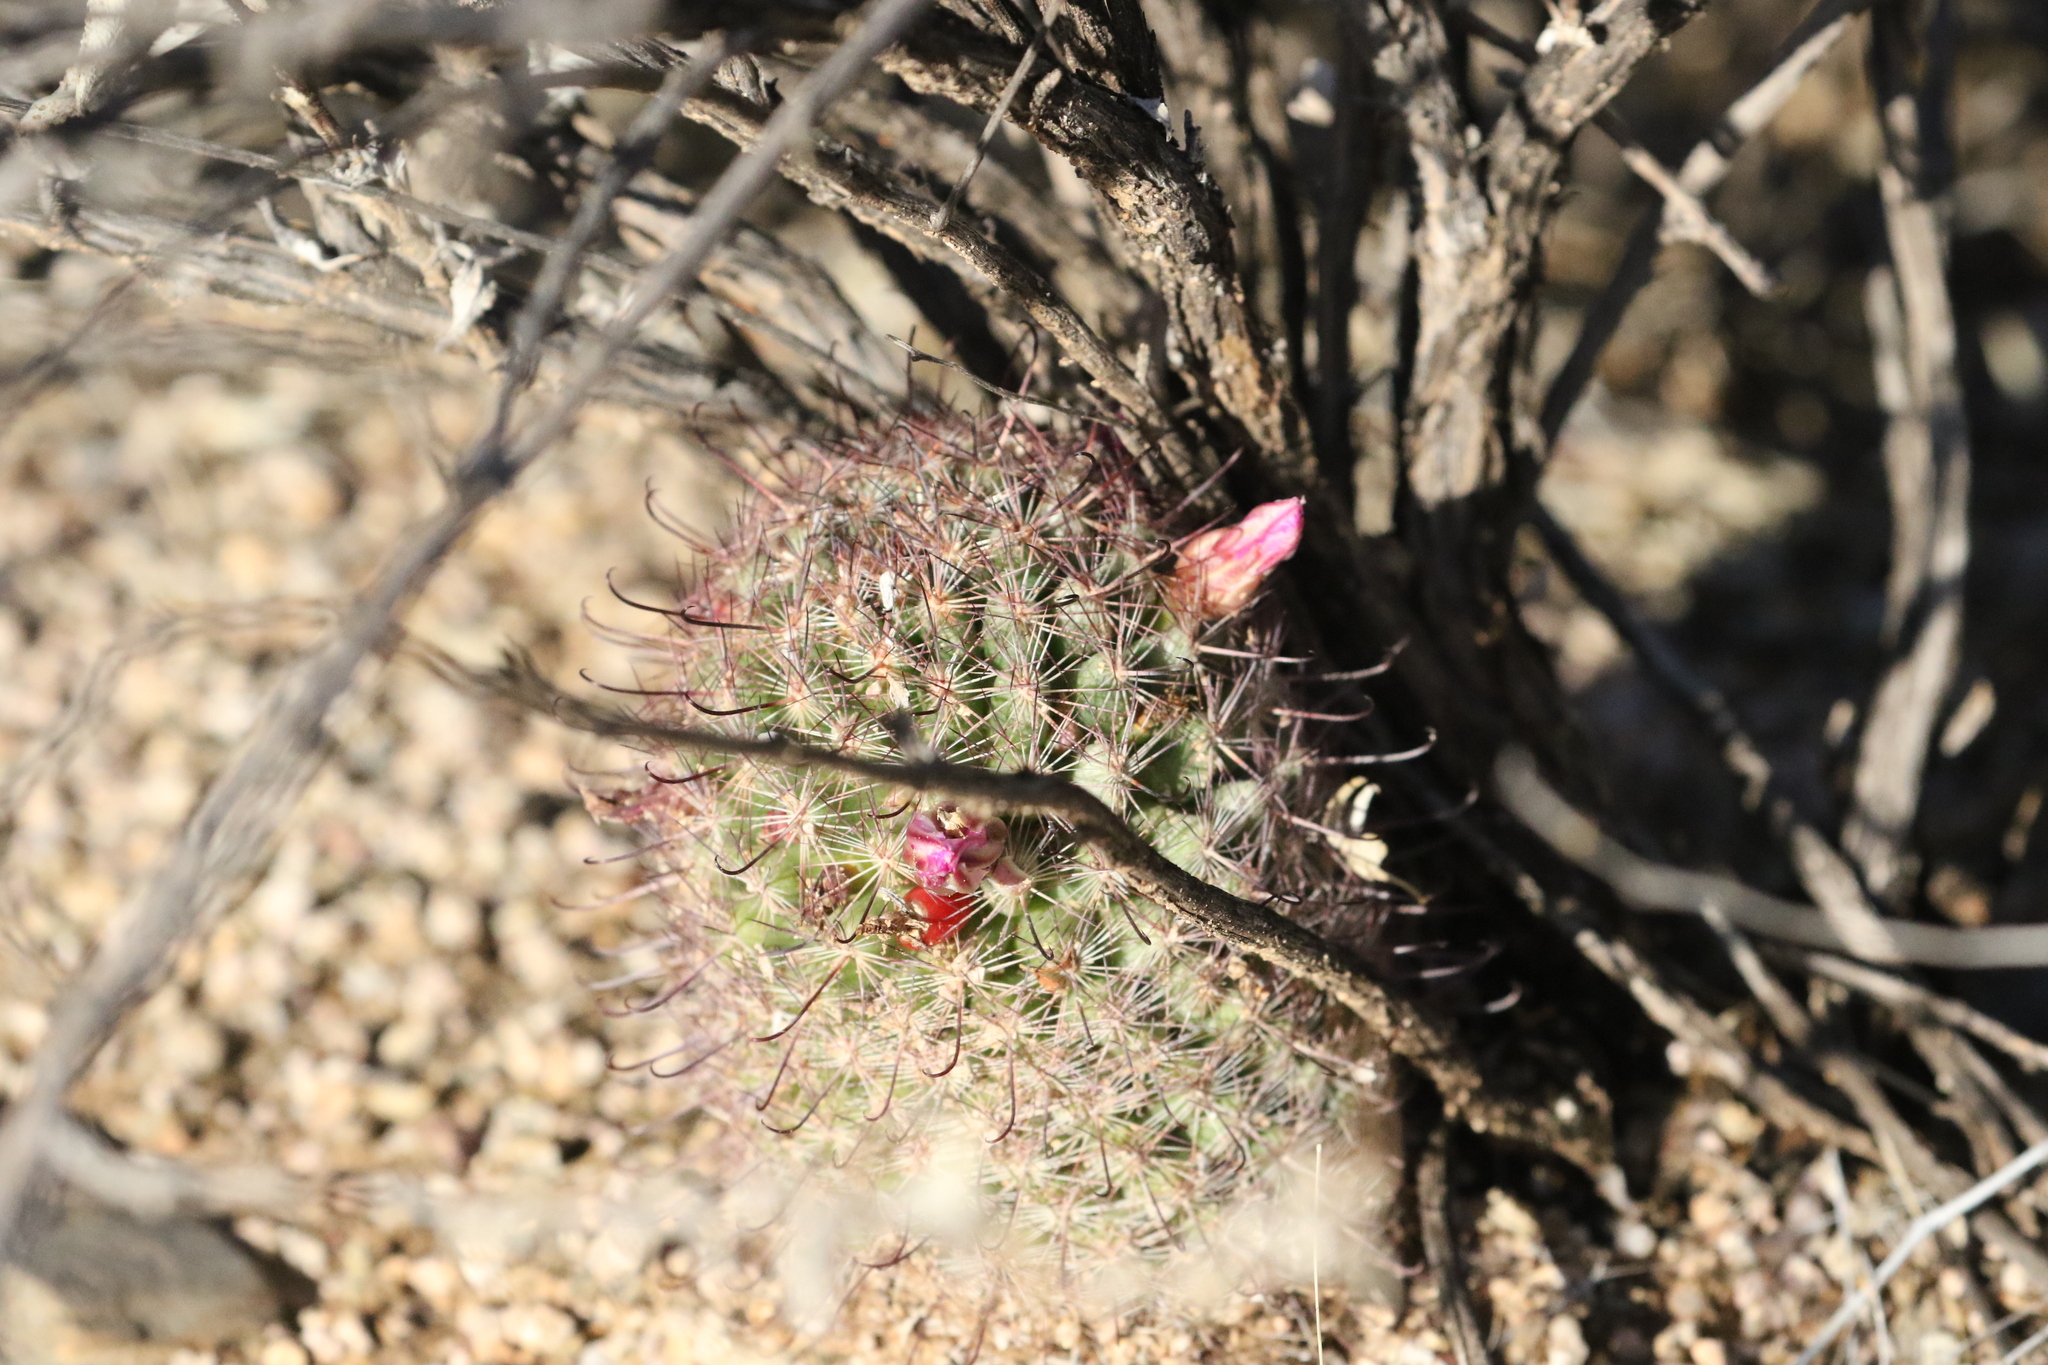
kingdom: Plantae
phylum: Tracheophyta
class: Magnoliopsida
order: Caryophyllales
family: Cactaceae
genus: Cochemiea
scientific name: Cochemiea grahamii
